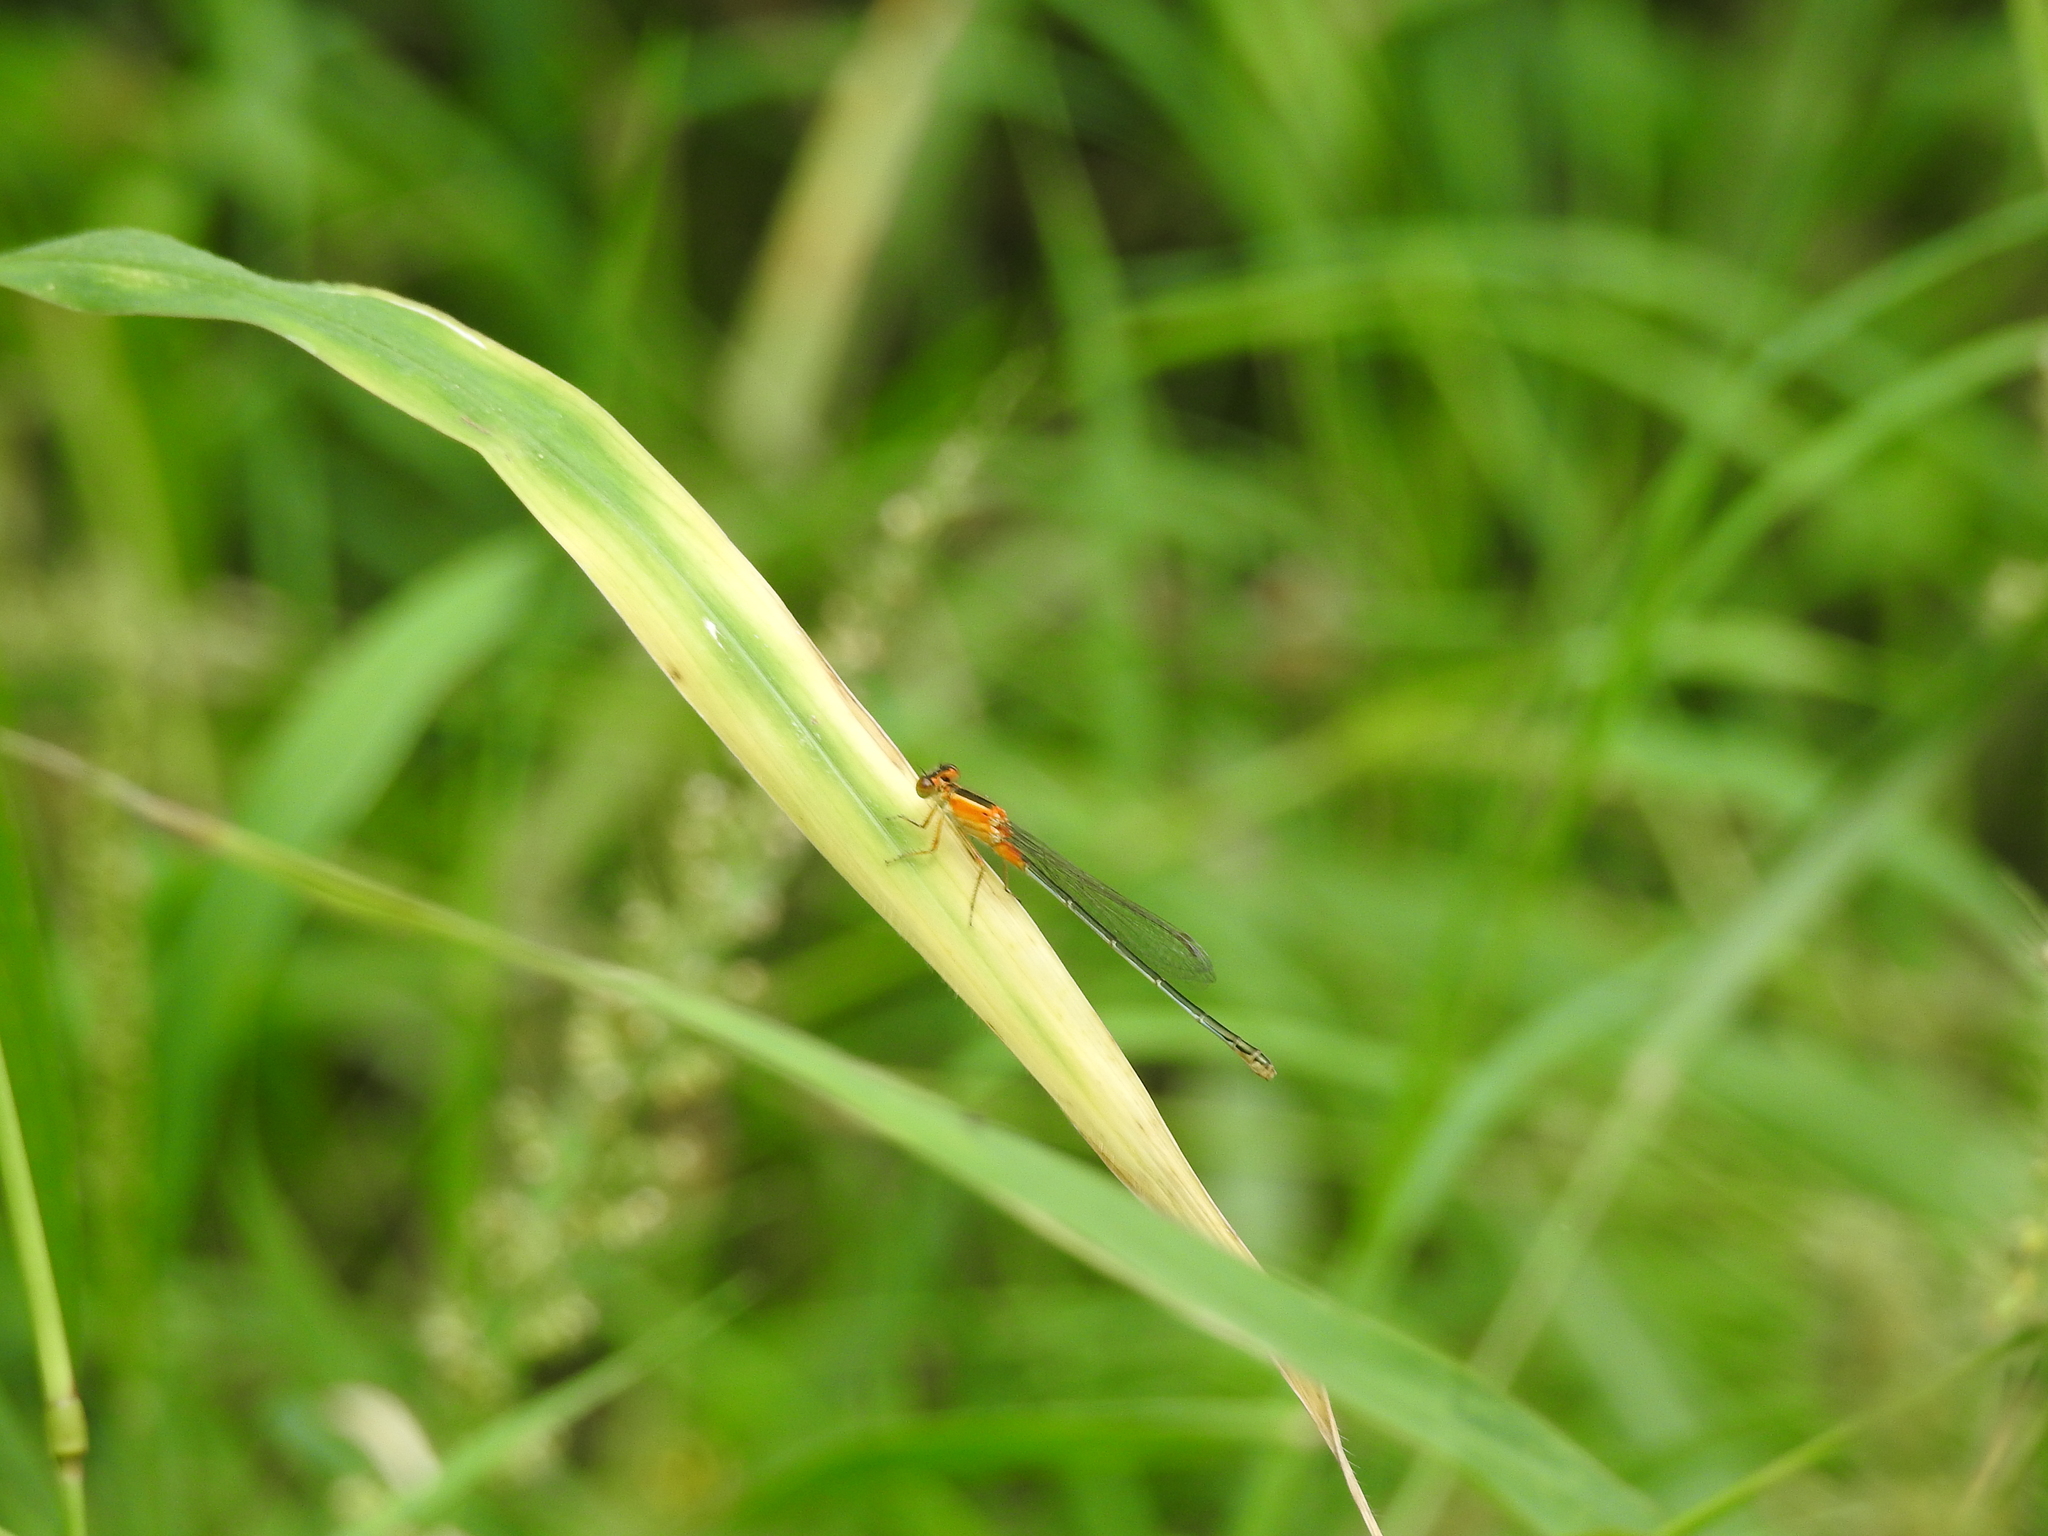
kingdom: Animalia
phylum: Arthropoda
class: Insecta
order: Odonata
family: Coenagrionidae
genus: Ischnura
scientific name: Ischnura senegalensis
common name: Tropical bluetail
